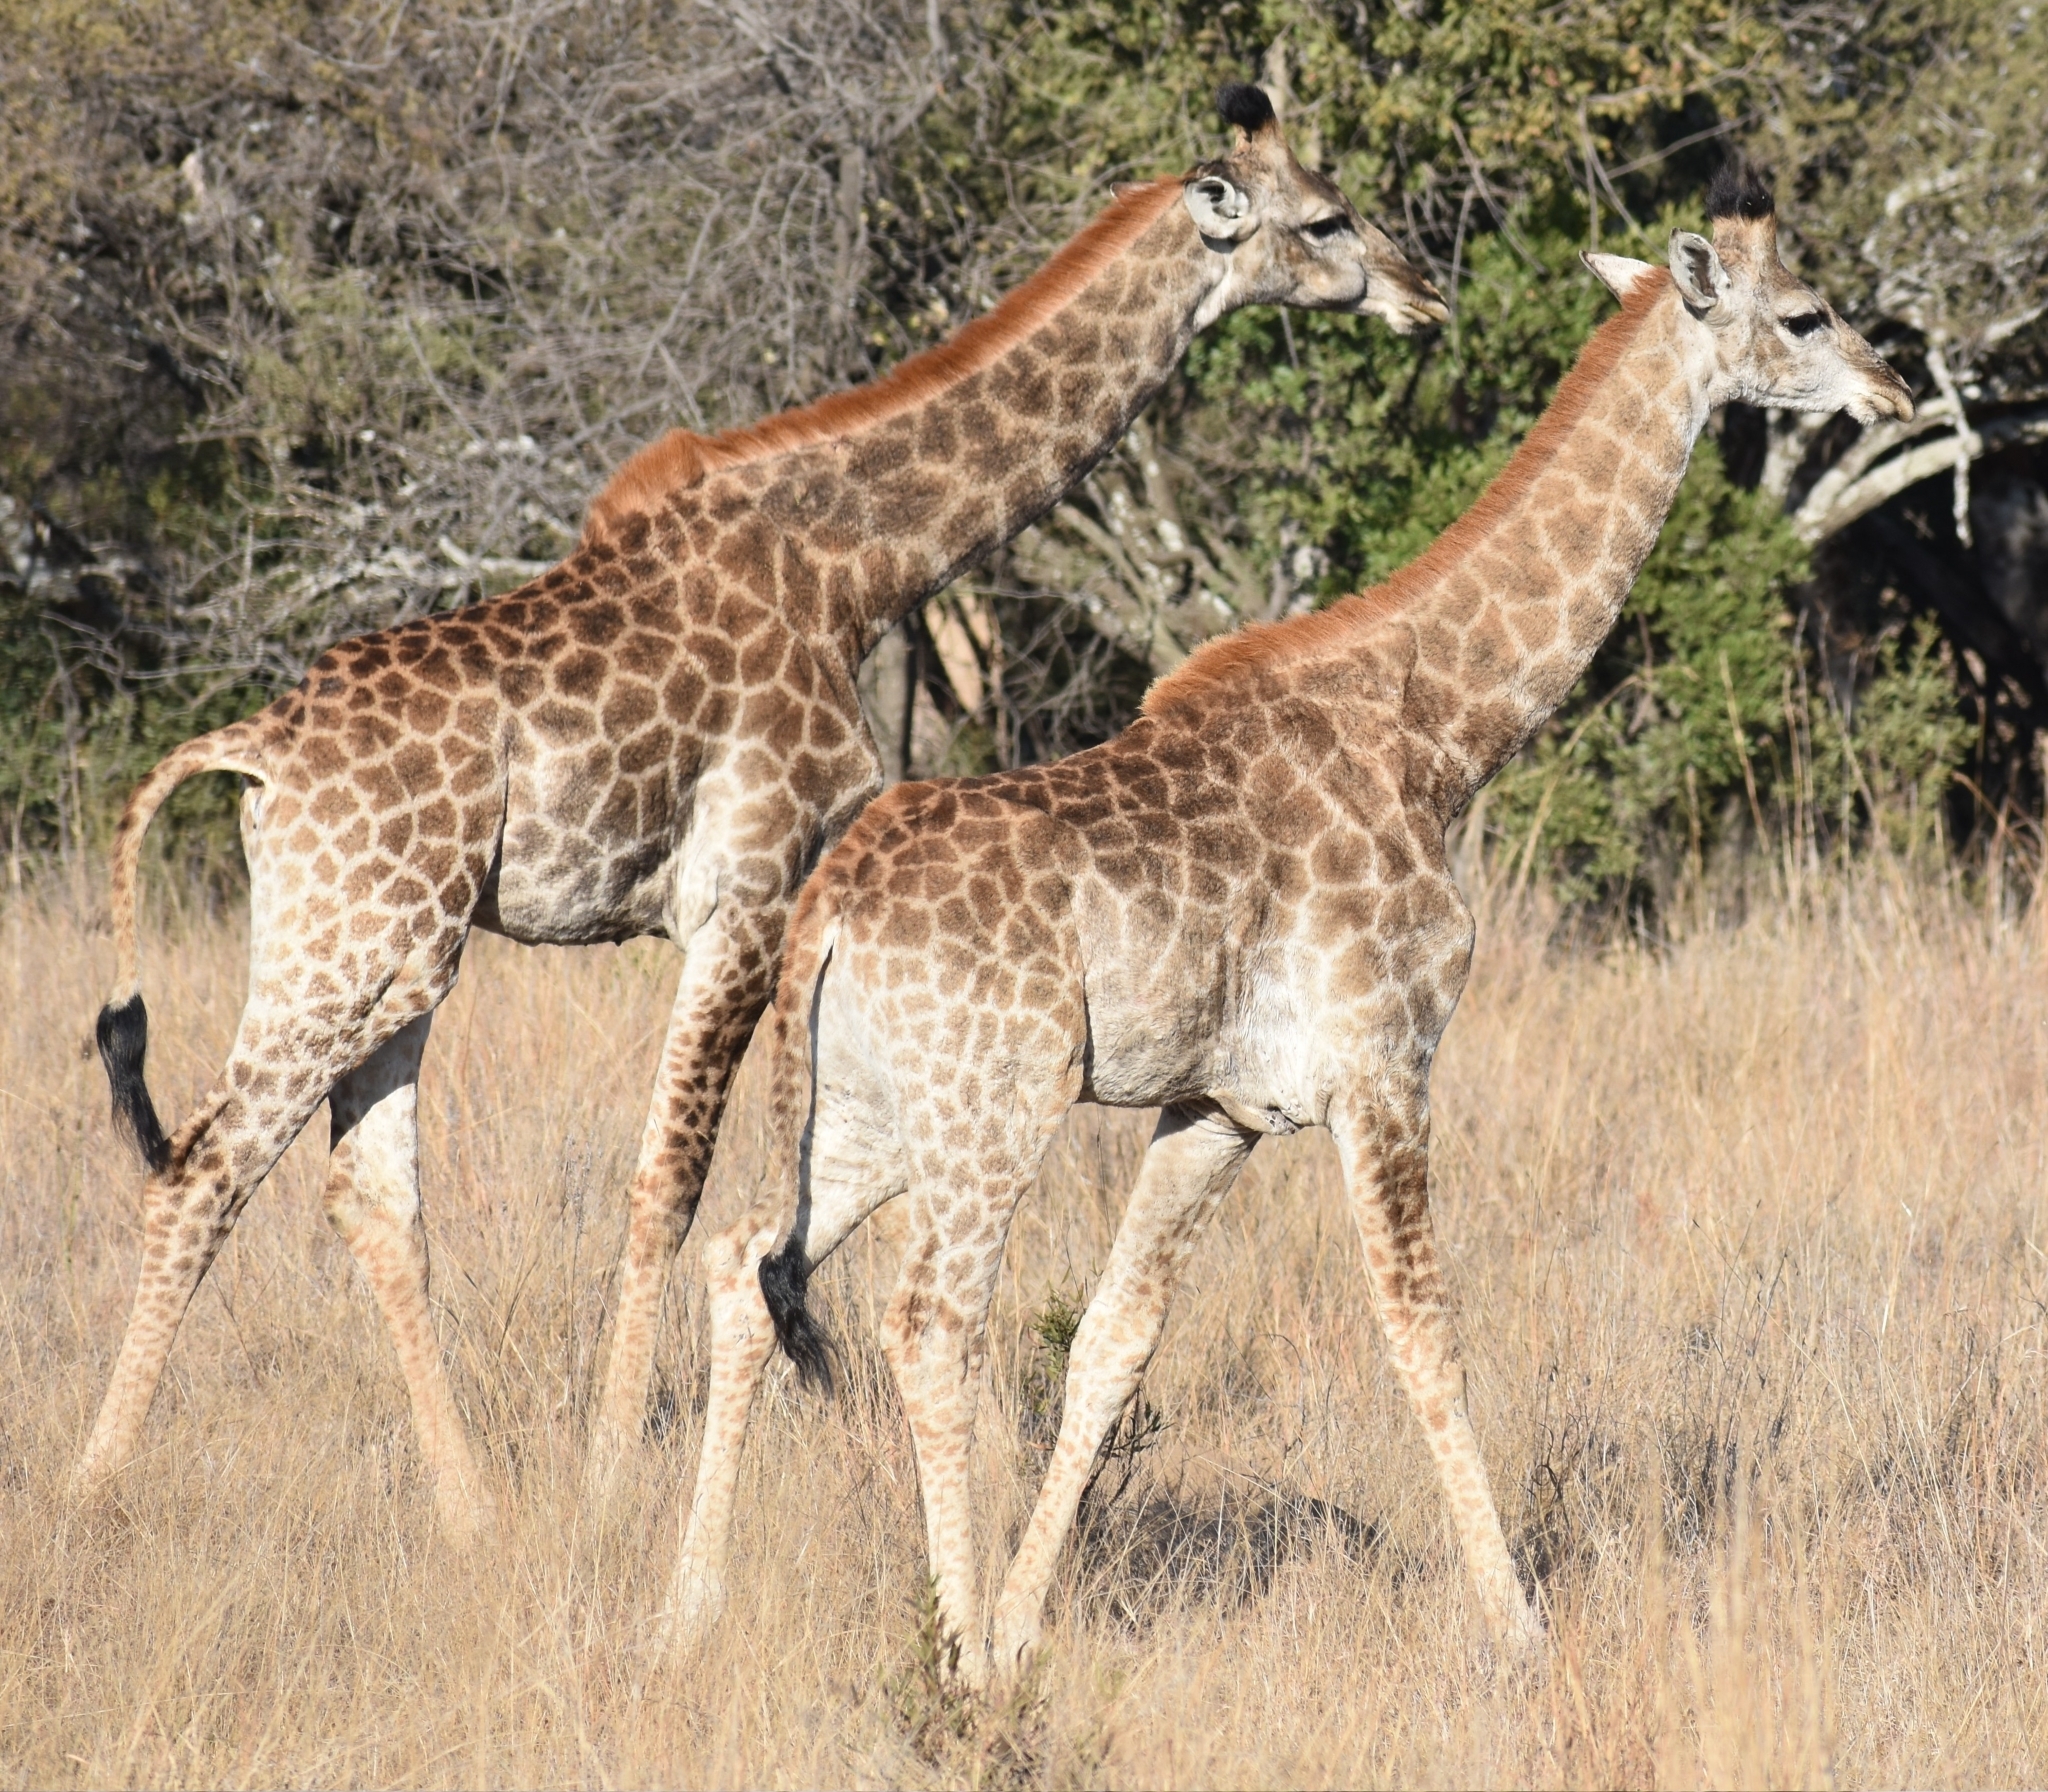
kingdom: Animalia
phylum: Chordata
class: Mammalia
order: Artiodactyla
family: Giraffidae
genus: Giraffa
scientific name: Giraffa giraffa
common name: Southern giraffe
